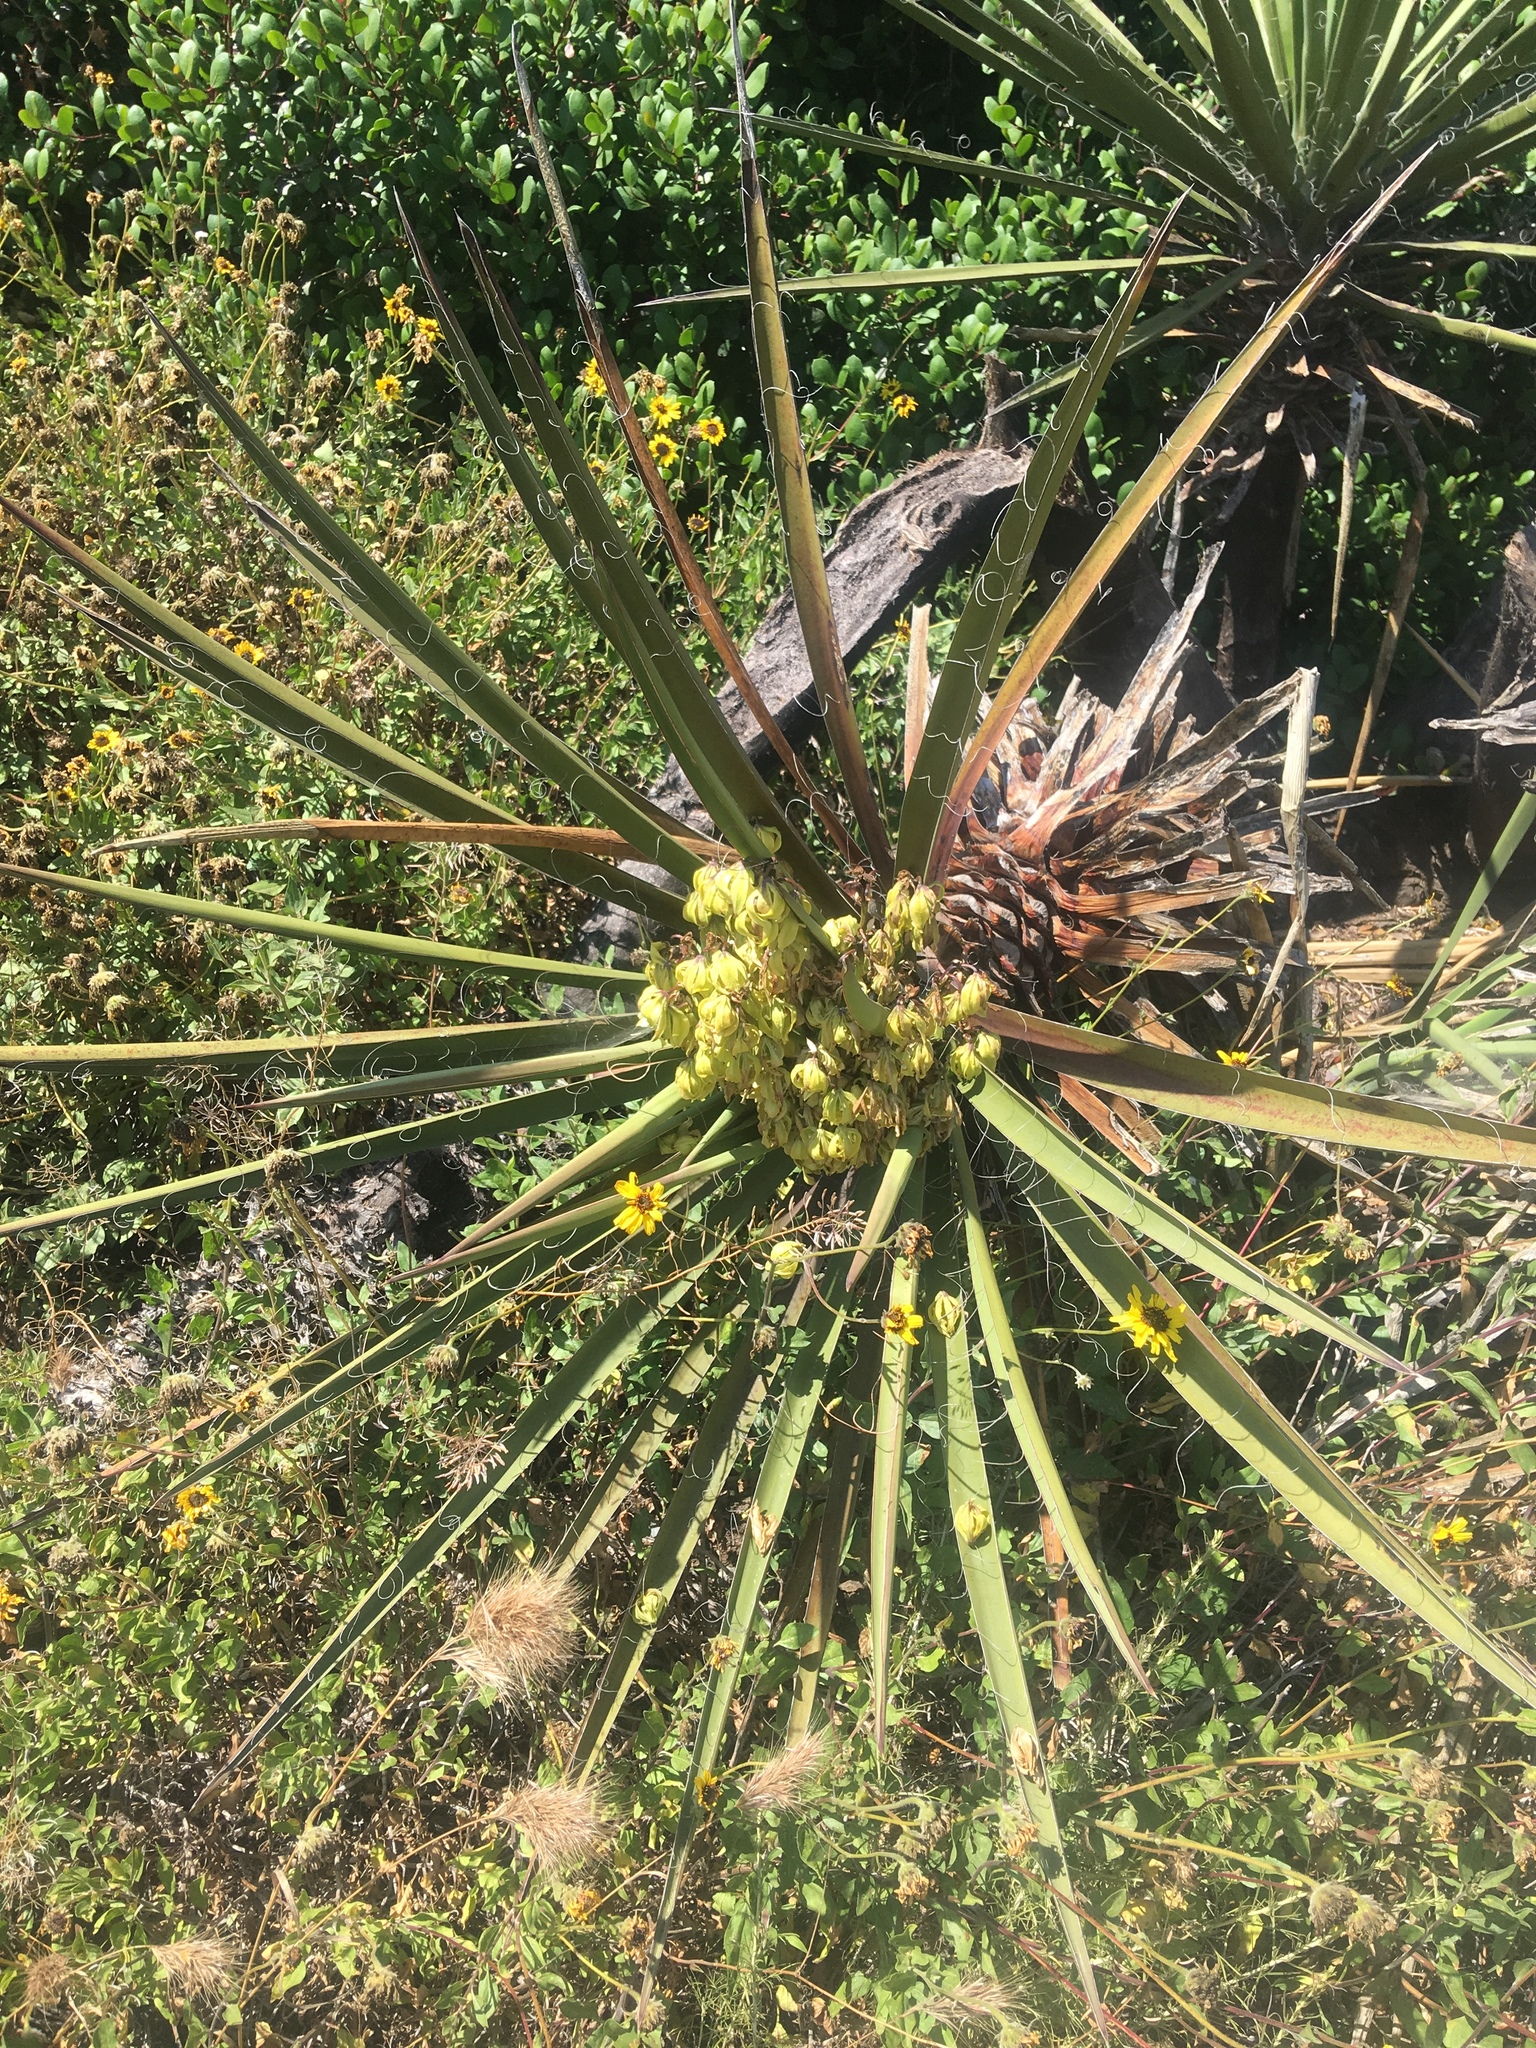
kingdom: Plantae
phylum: Tracheophyta
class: Liliopsida
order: Asparagales
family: Asparagaceae
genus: Yucca
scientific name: Yucca schidigera
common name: Mojave yucca
